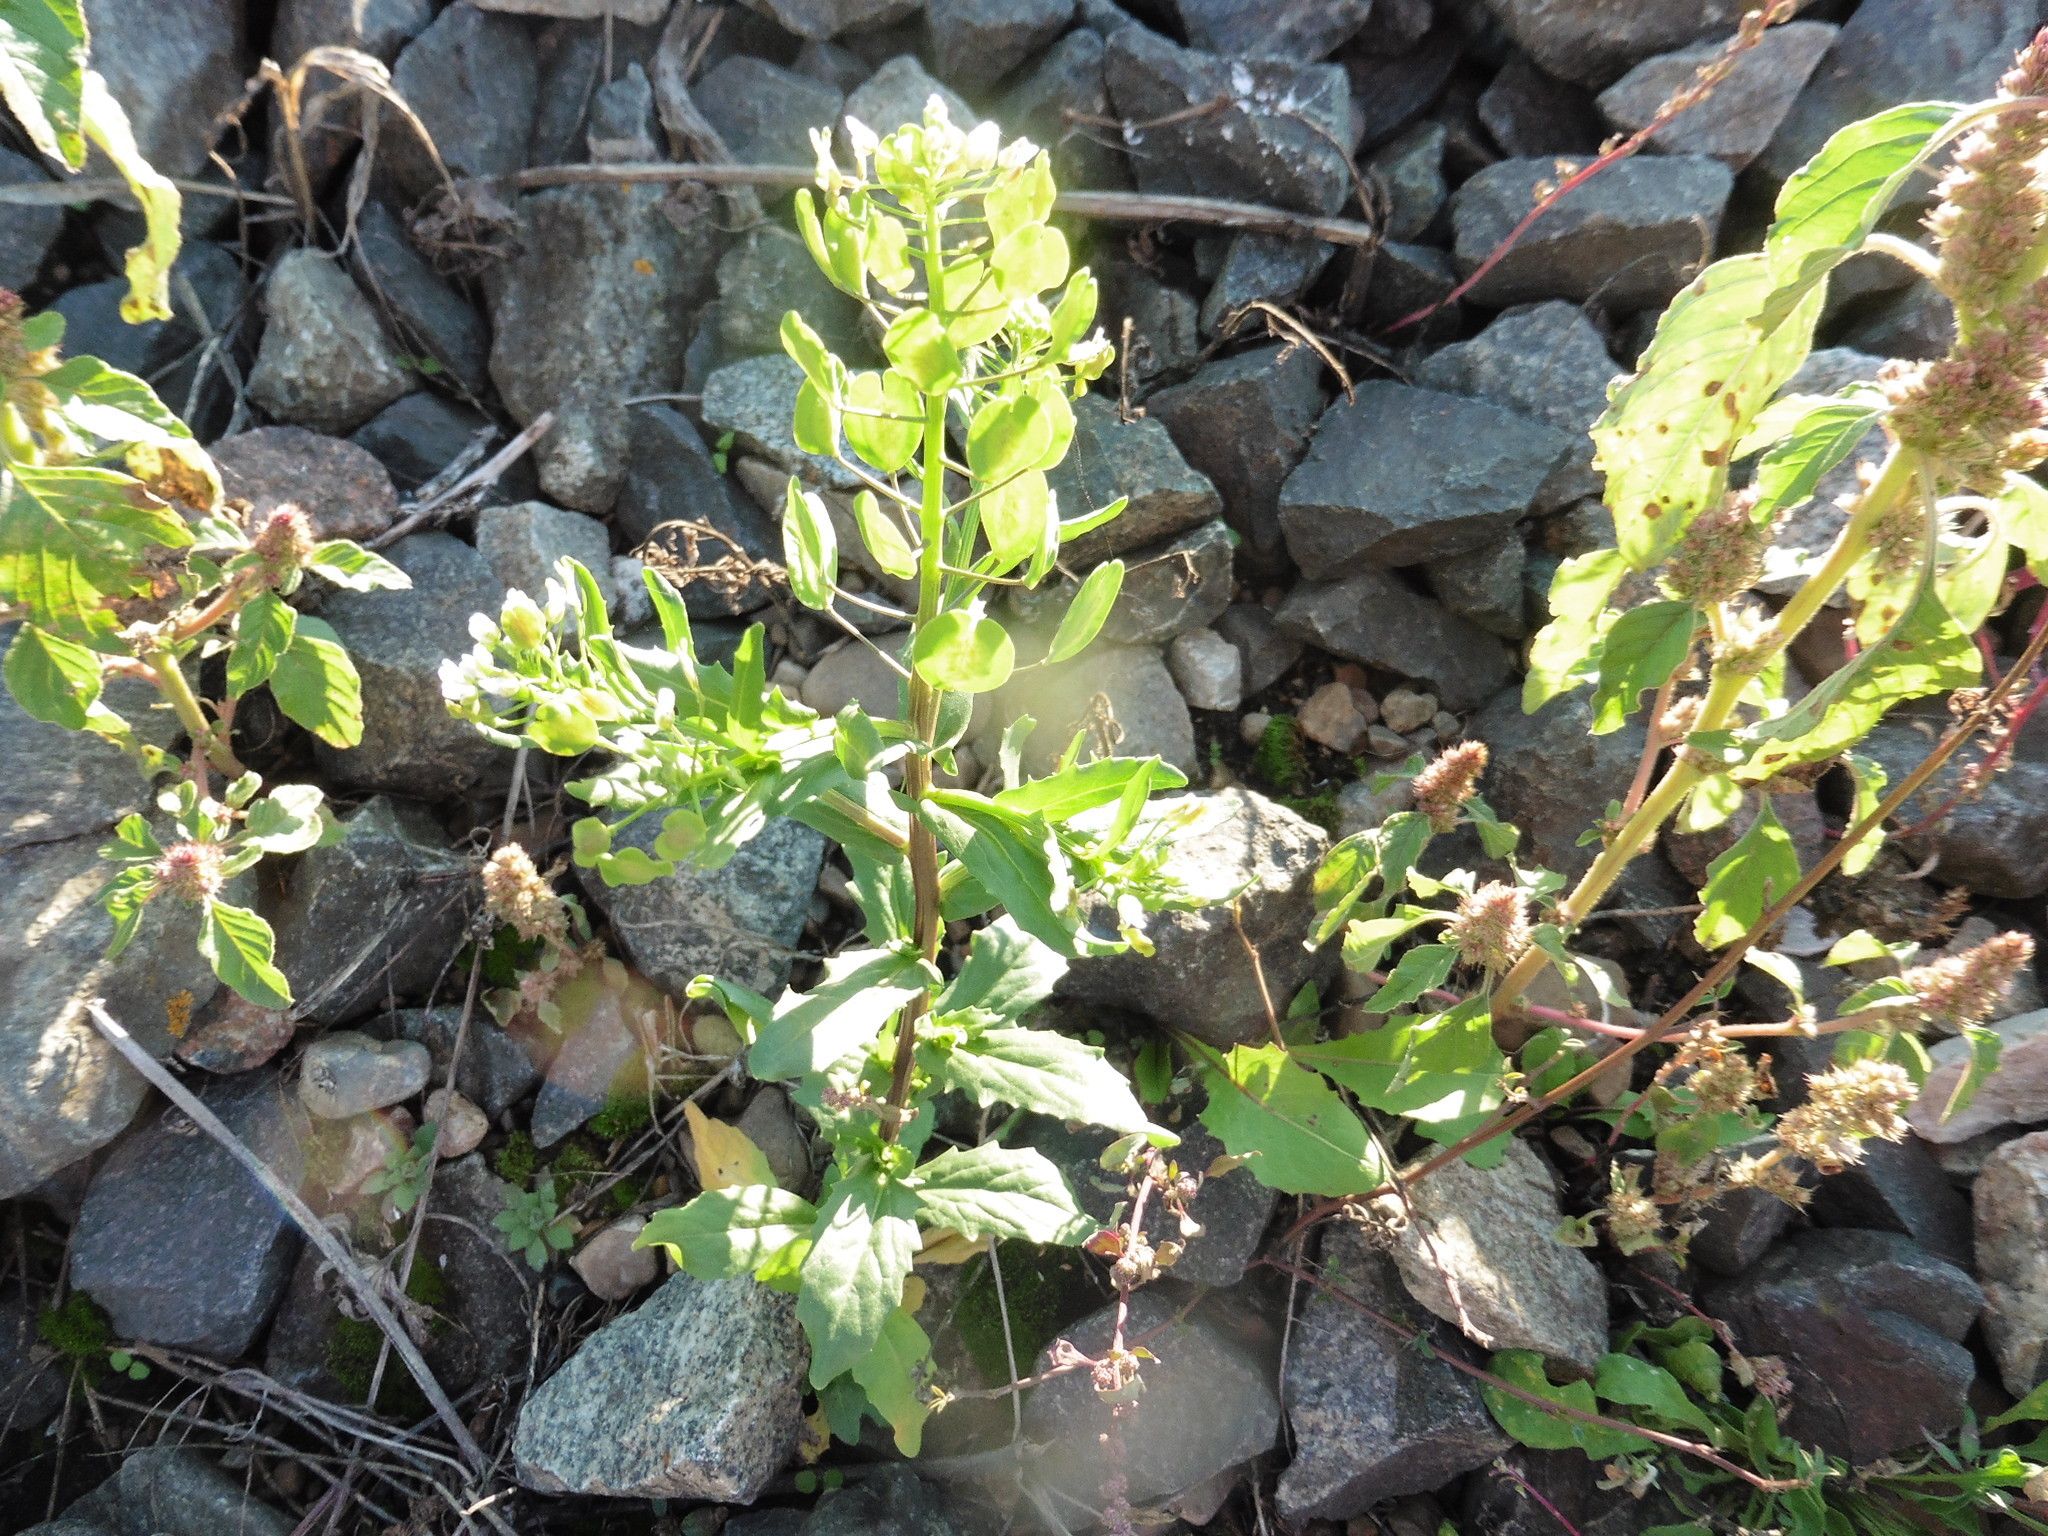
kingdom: Plantae
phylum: Tracheophyta
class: Magnoliopsida
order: Brassicales
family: Brassicaceae
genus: Thlaspi
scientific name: Thlaspi arvense
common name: Field pennycress
